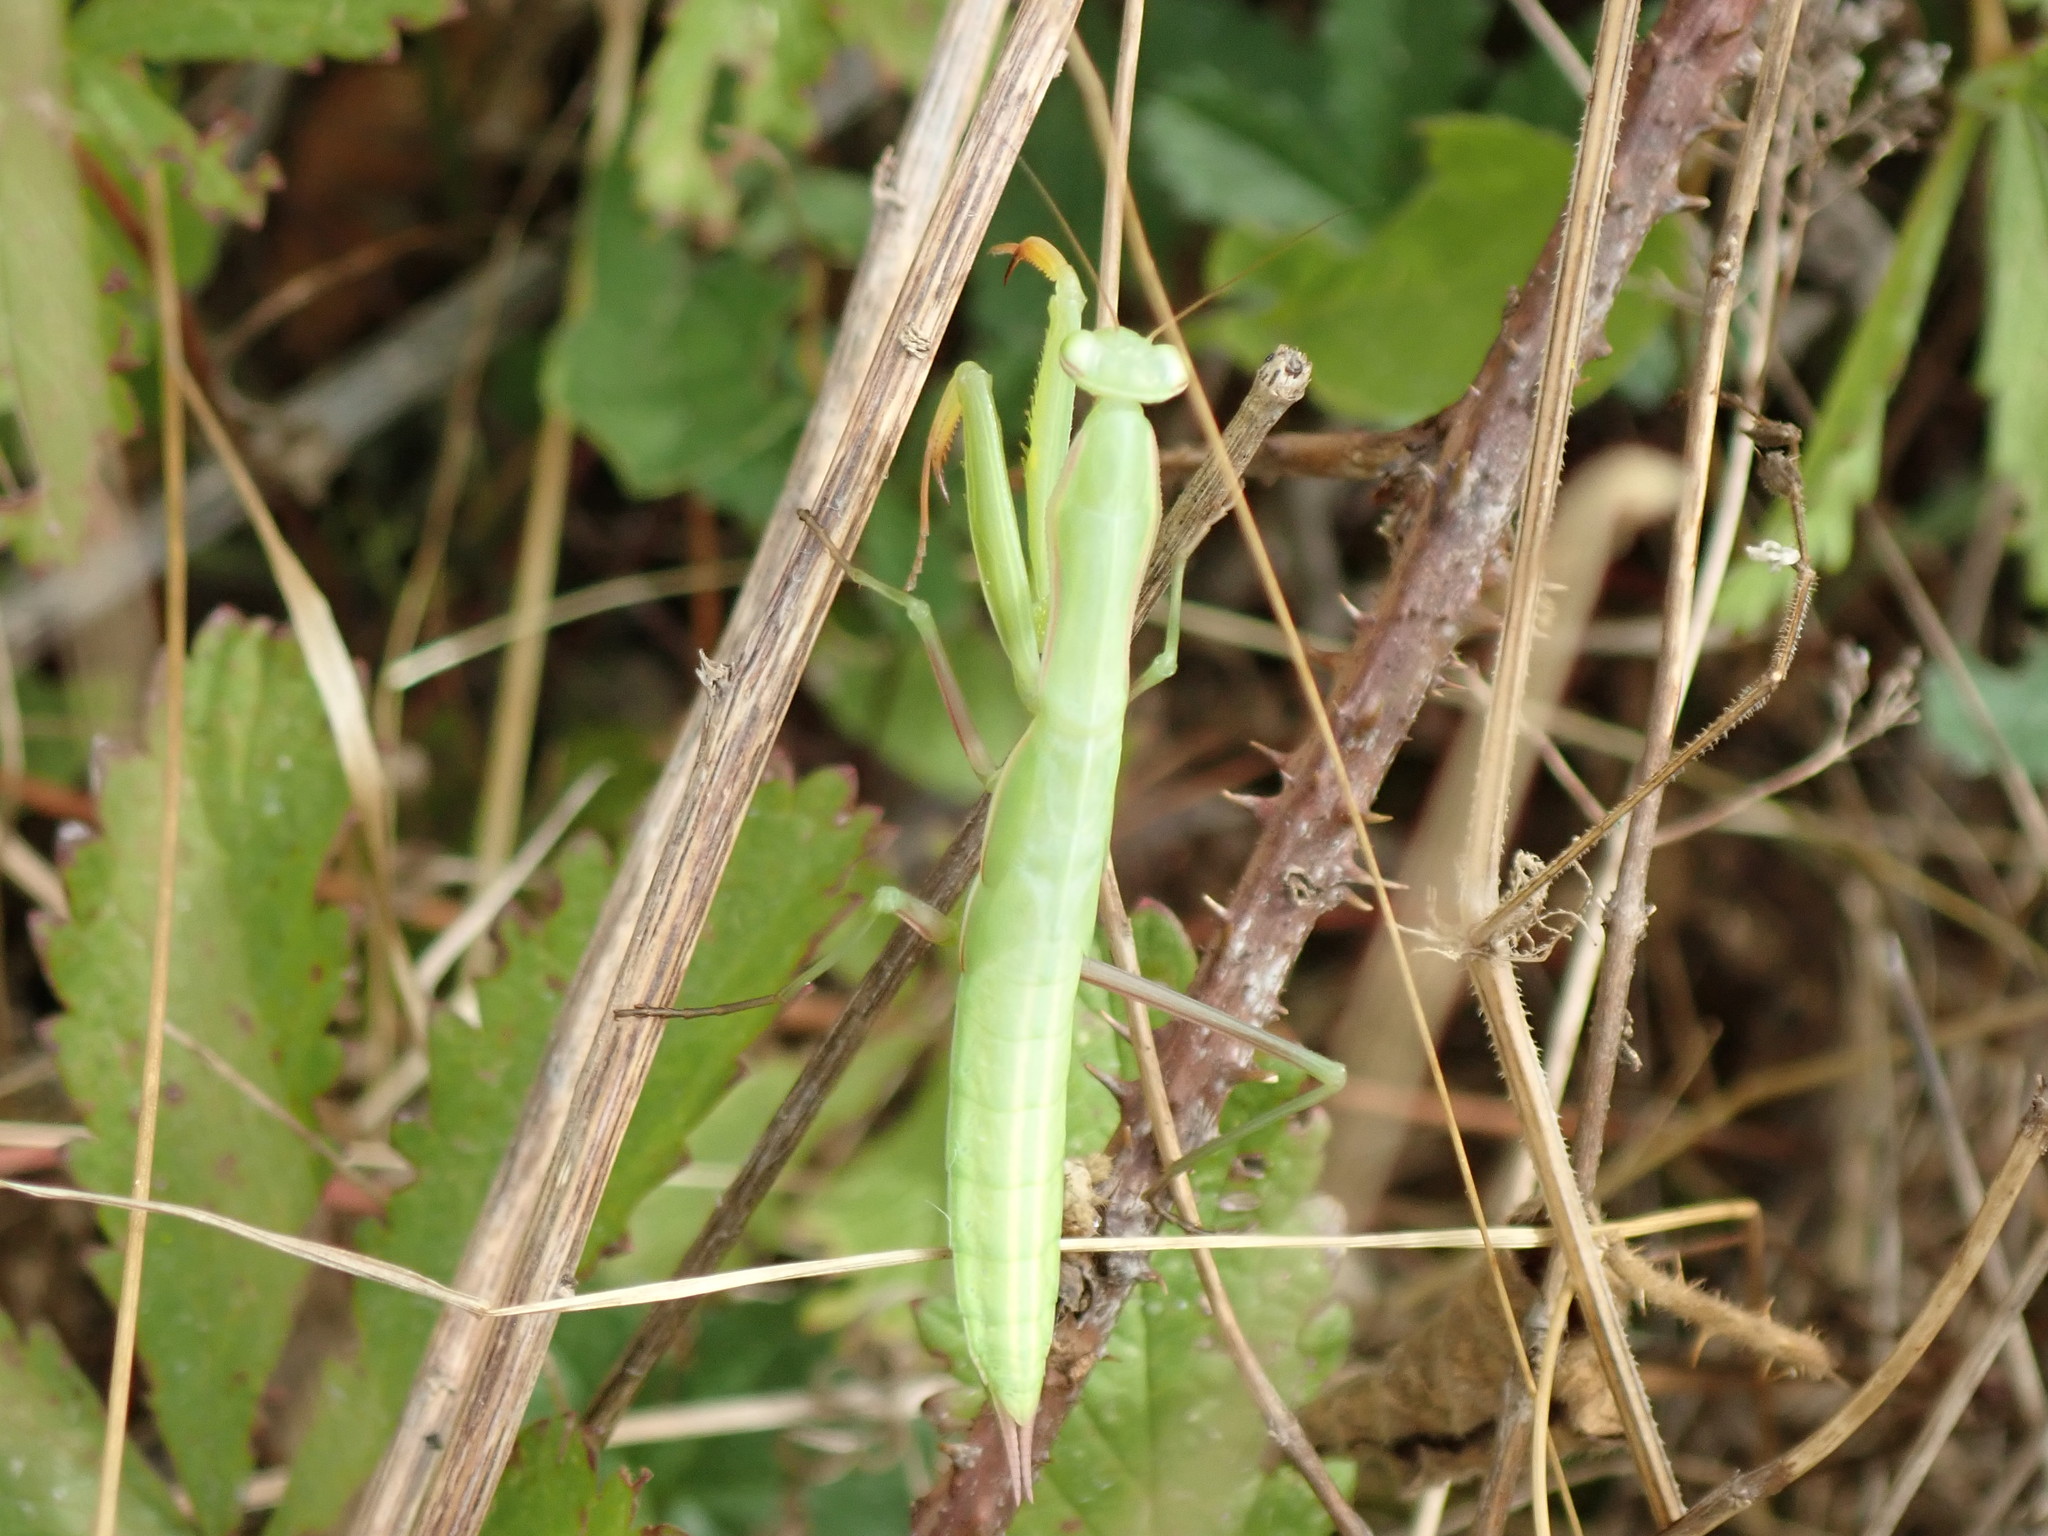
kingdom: Animalia
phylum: Arthropoda
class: Insecta
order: Mantodea
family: Mantidae
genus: Mantis
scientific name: Mantis religiosa
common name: Praying mantis
